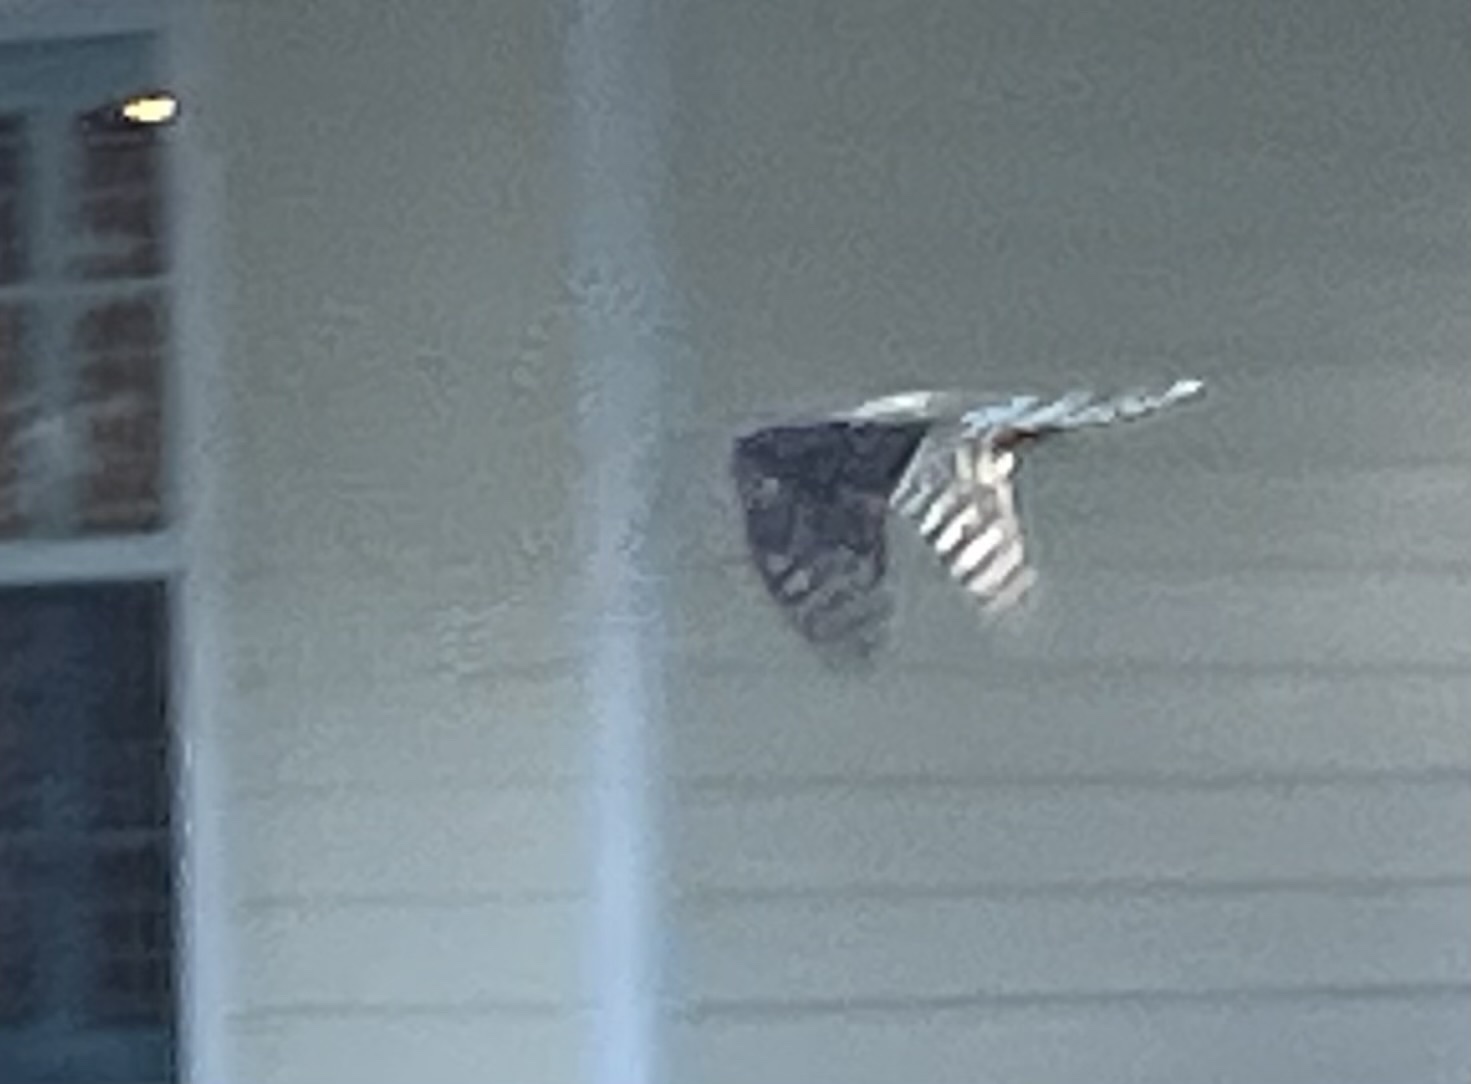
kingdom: Animalia
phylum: Chordata
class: Aves
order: Accipitriformes
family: Accipitridae
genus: Accipiter
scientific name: Accipiter cooperii
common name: Cooper's hawk
